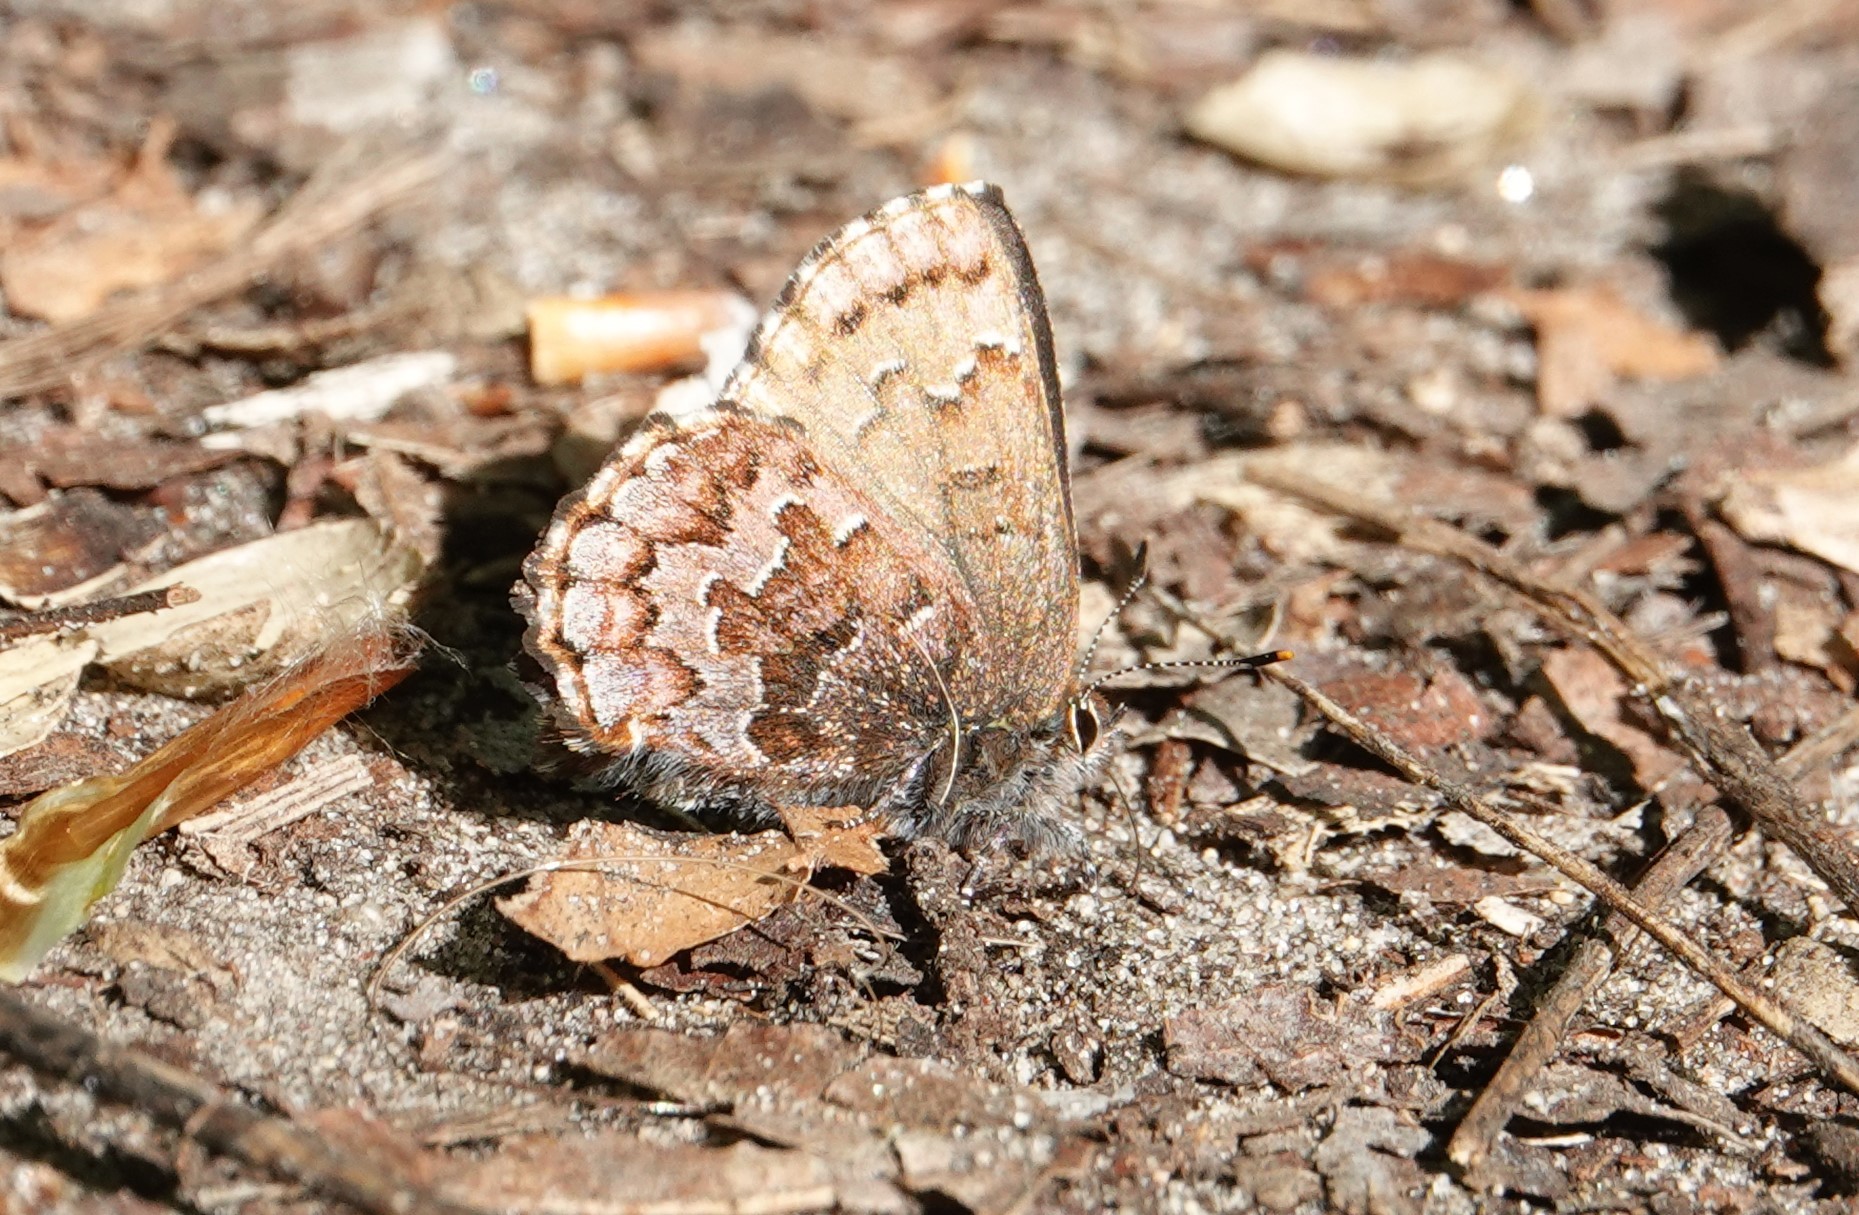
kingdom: Animalia
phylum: Arthropoda
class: Insecta
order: Lepidoptera
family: Lycaenidae
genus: Incisalia
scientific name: Incisalia niphon
